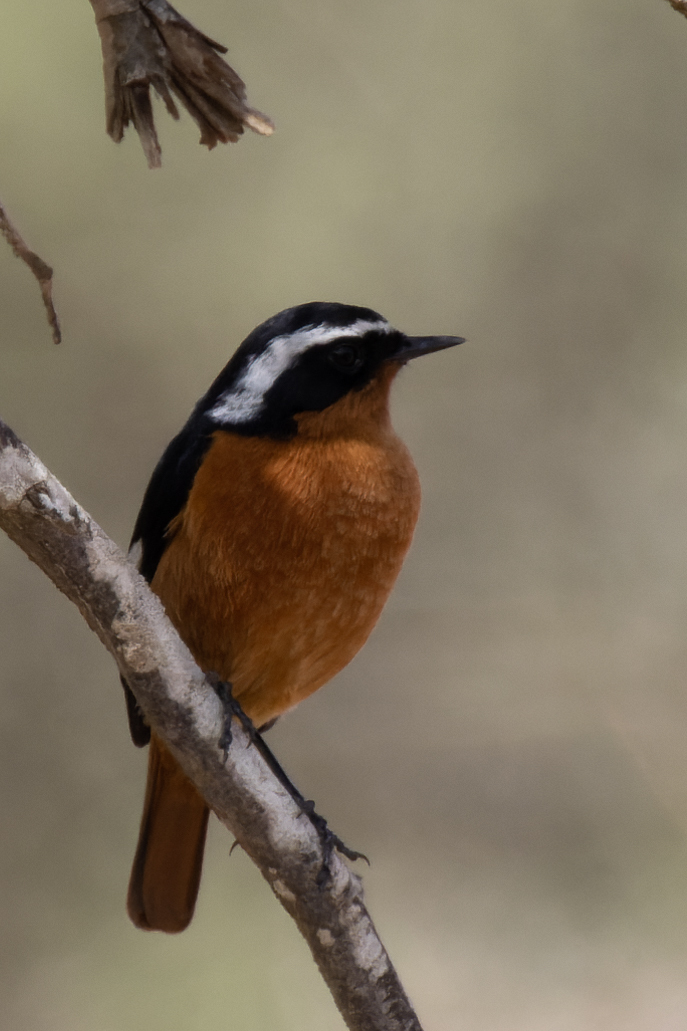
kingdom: Animalia
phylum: Chordata
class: Aves
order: Passeriformes
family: Muscicapidae
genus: Phoenicurus
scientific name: Phoenicurus moussieri
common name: Moussier's redstart
